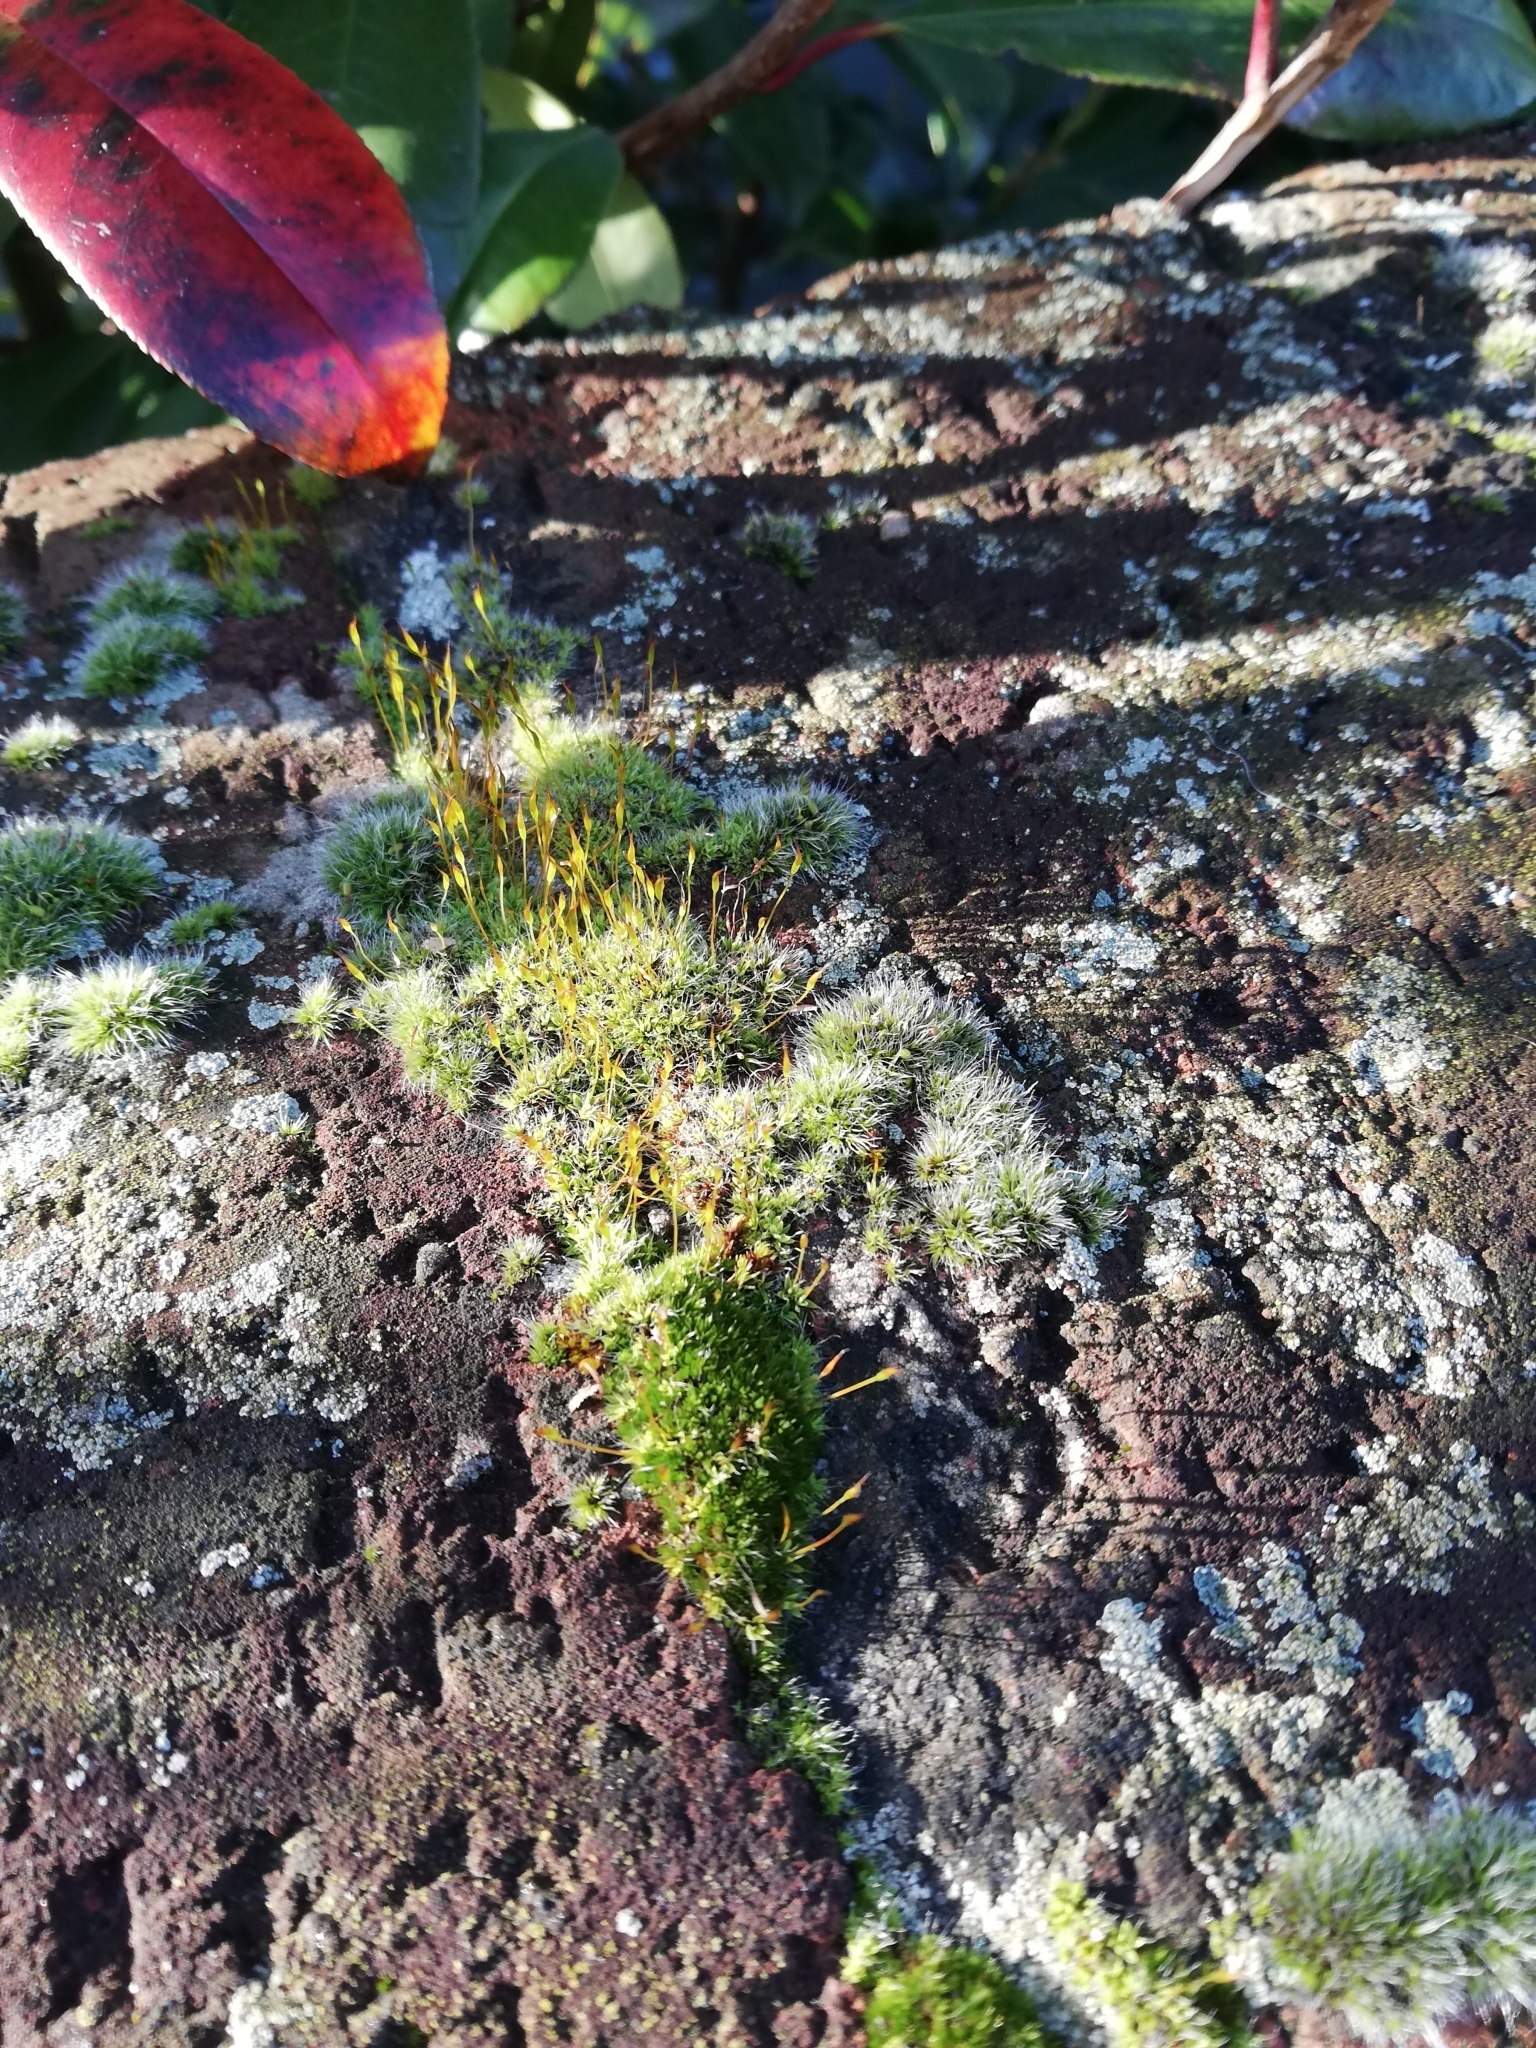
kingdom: Plantae
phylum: Bryophyta
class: Bryopsida
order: Pottiales
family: Pottiaceae
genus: Tortula
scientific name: Tortula muralis
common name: Wall screw-moss
